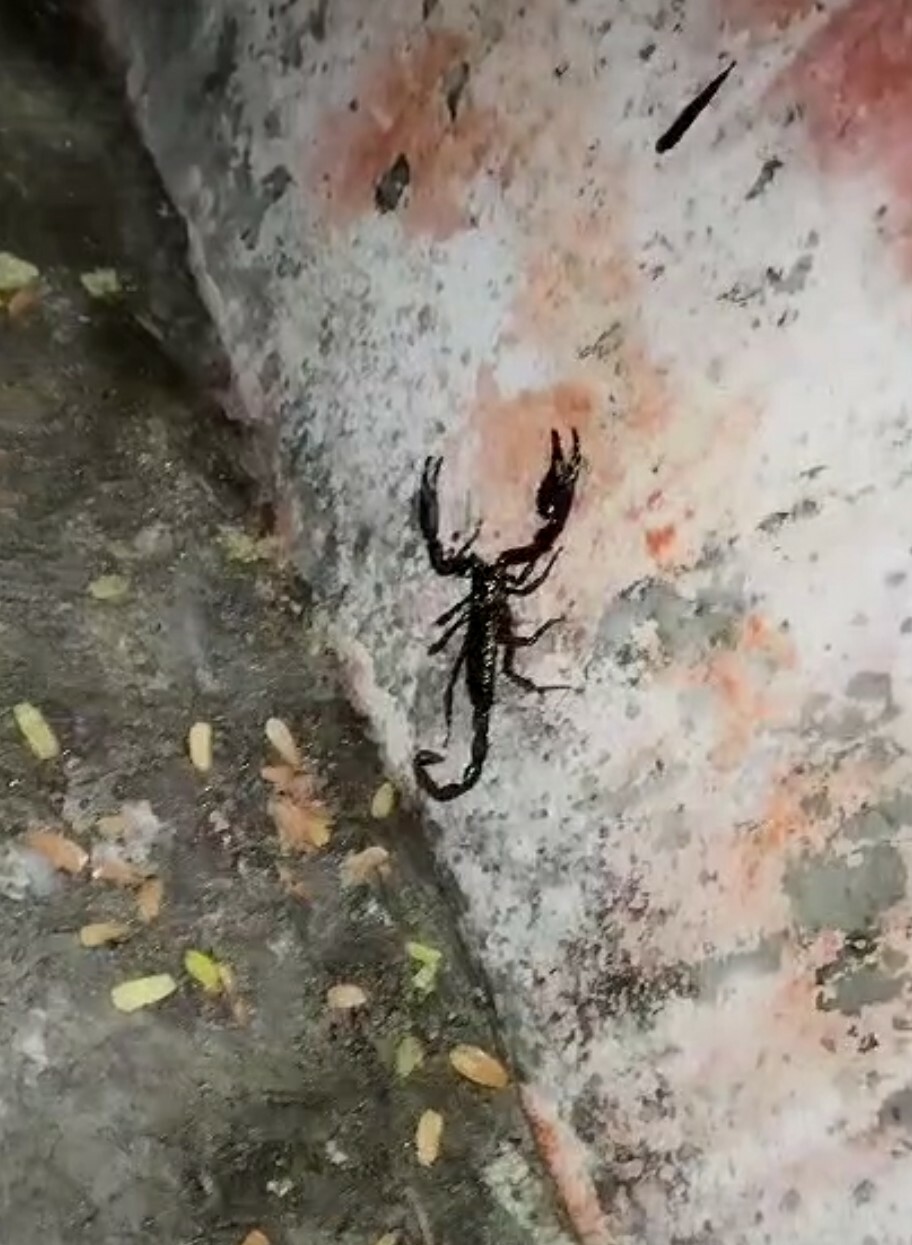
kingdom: Animalia
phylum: Arthropoda
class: Arachnida
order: Scorpiones
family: Diplocentridae
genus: Diplocentrus
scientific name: Diplocentrus taibeli
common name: Scorpions
